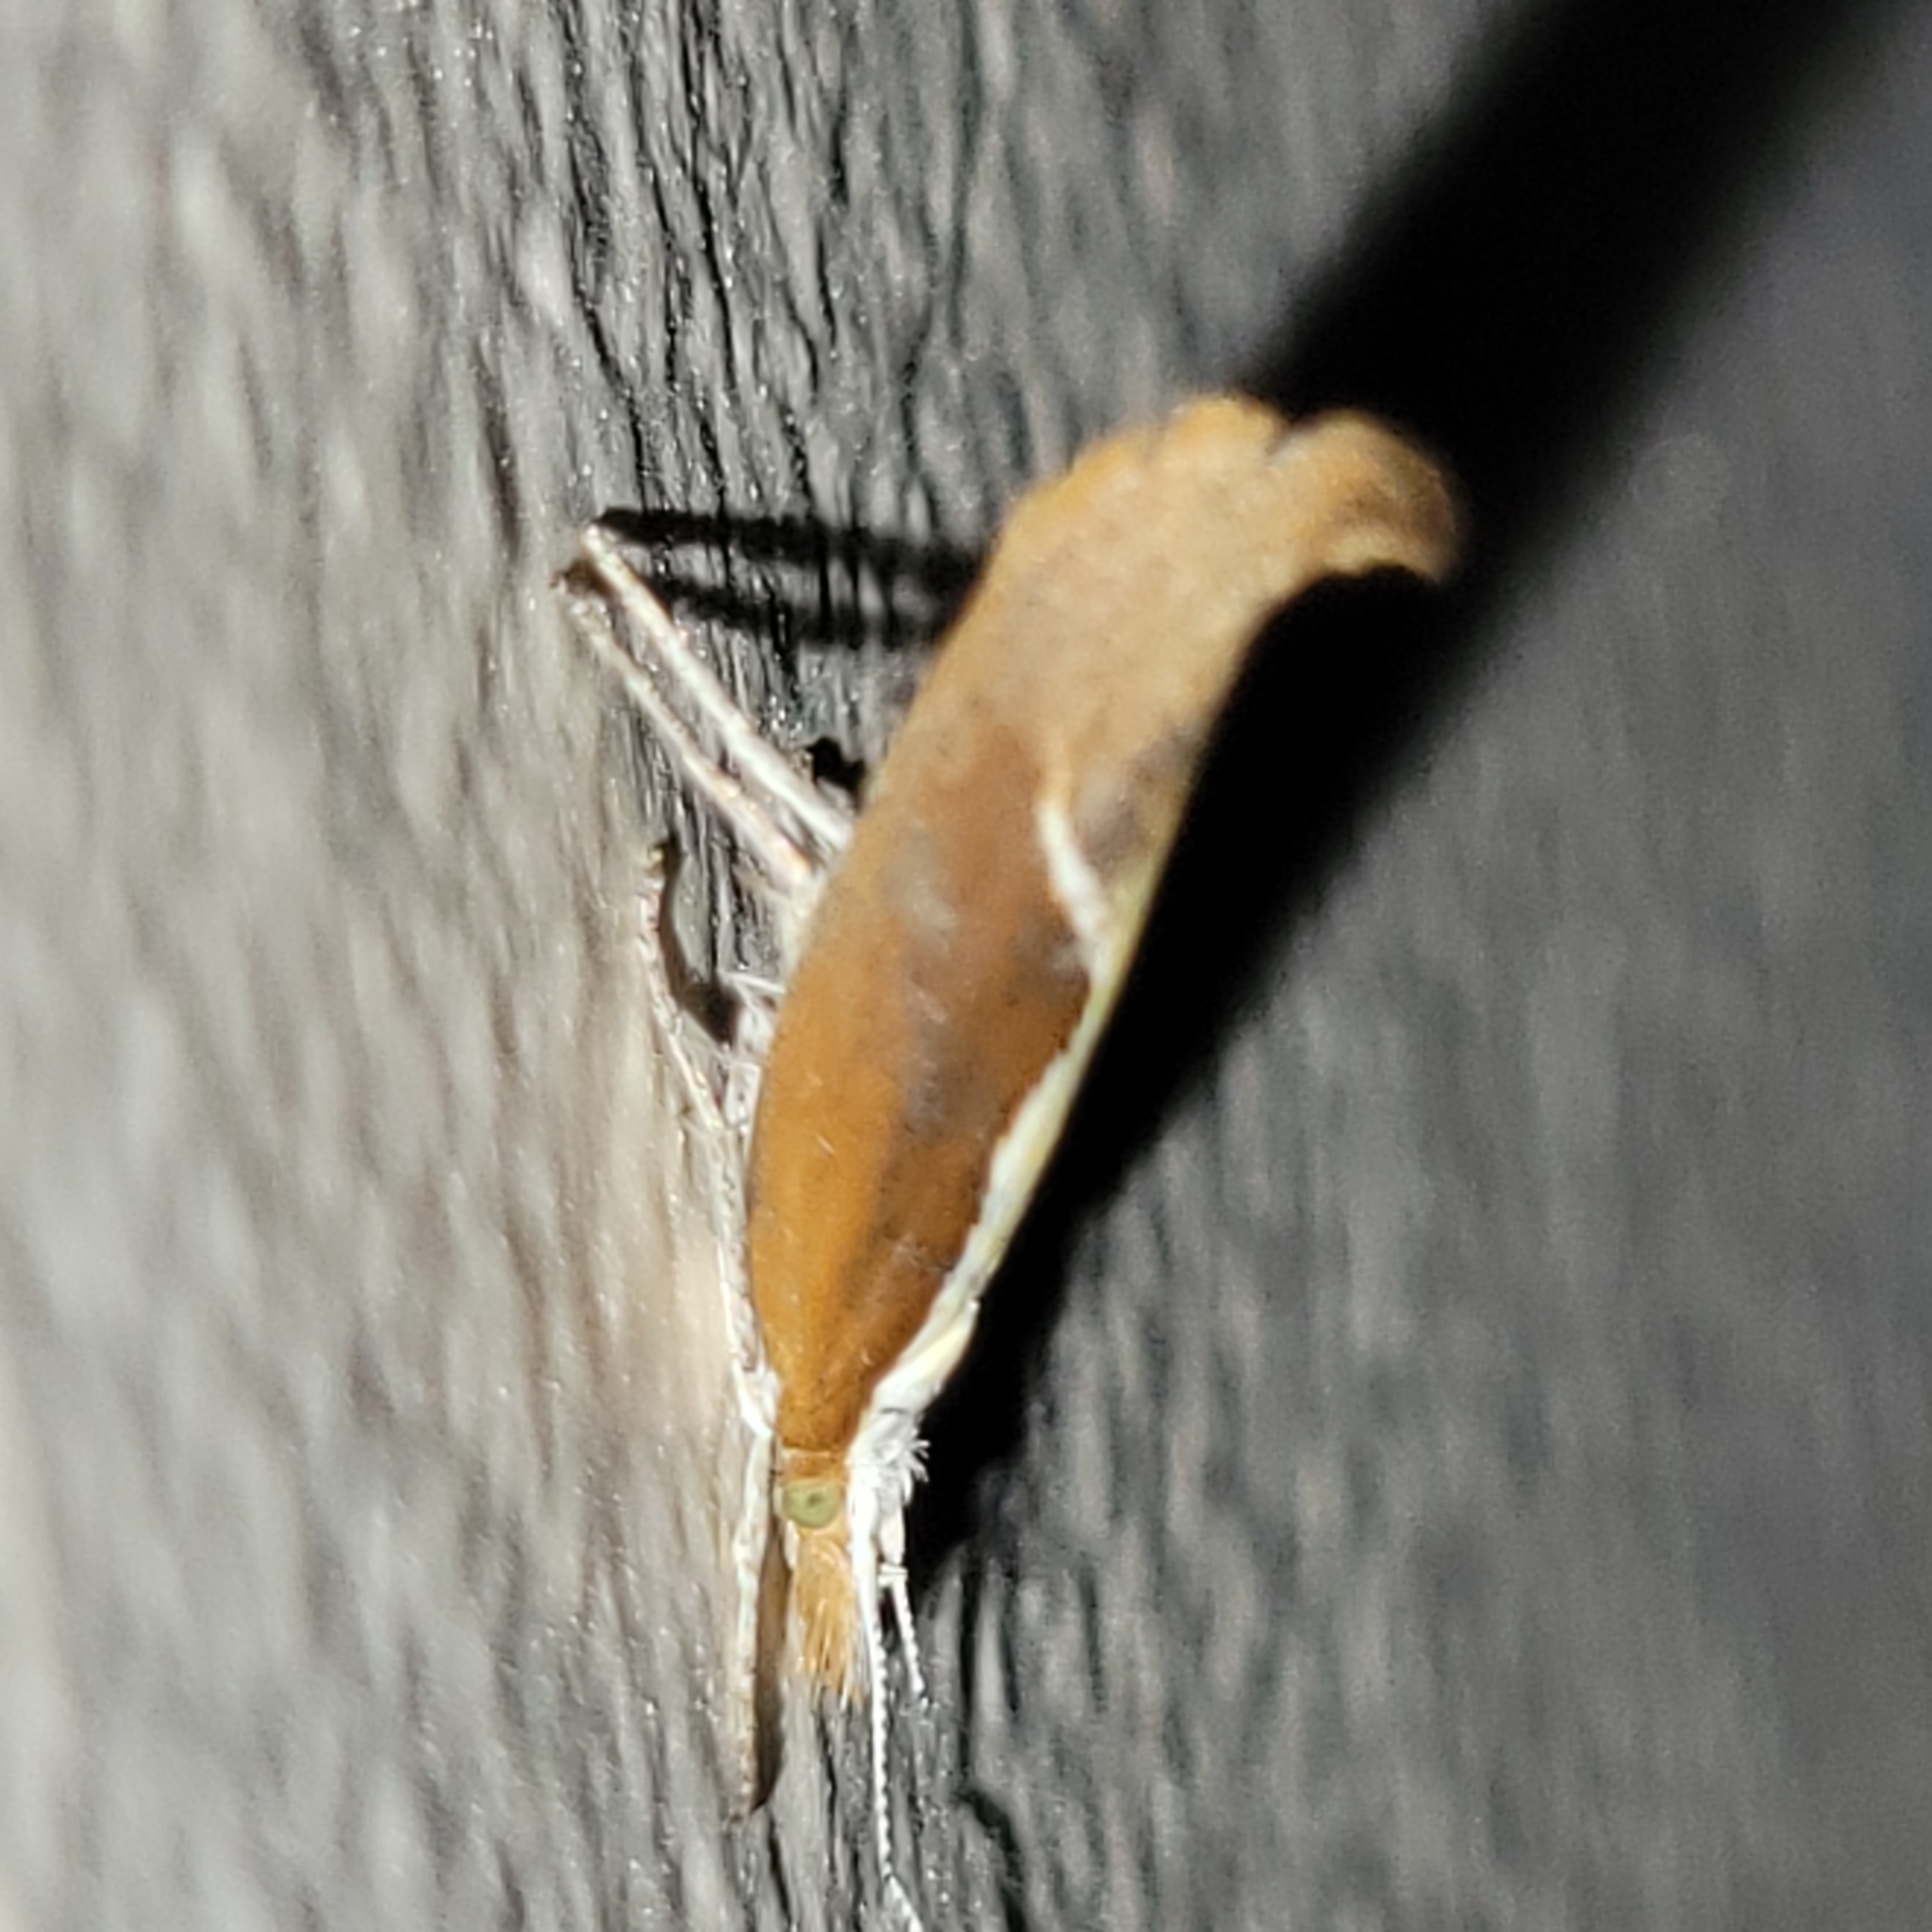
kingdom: Animalia
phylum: Arthropoda
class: Insecta
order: Lepidoptera
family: Ypsolophidae
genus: Ypsolopha
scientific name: Ypsolopha dentella
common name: Honeysuckle moth
